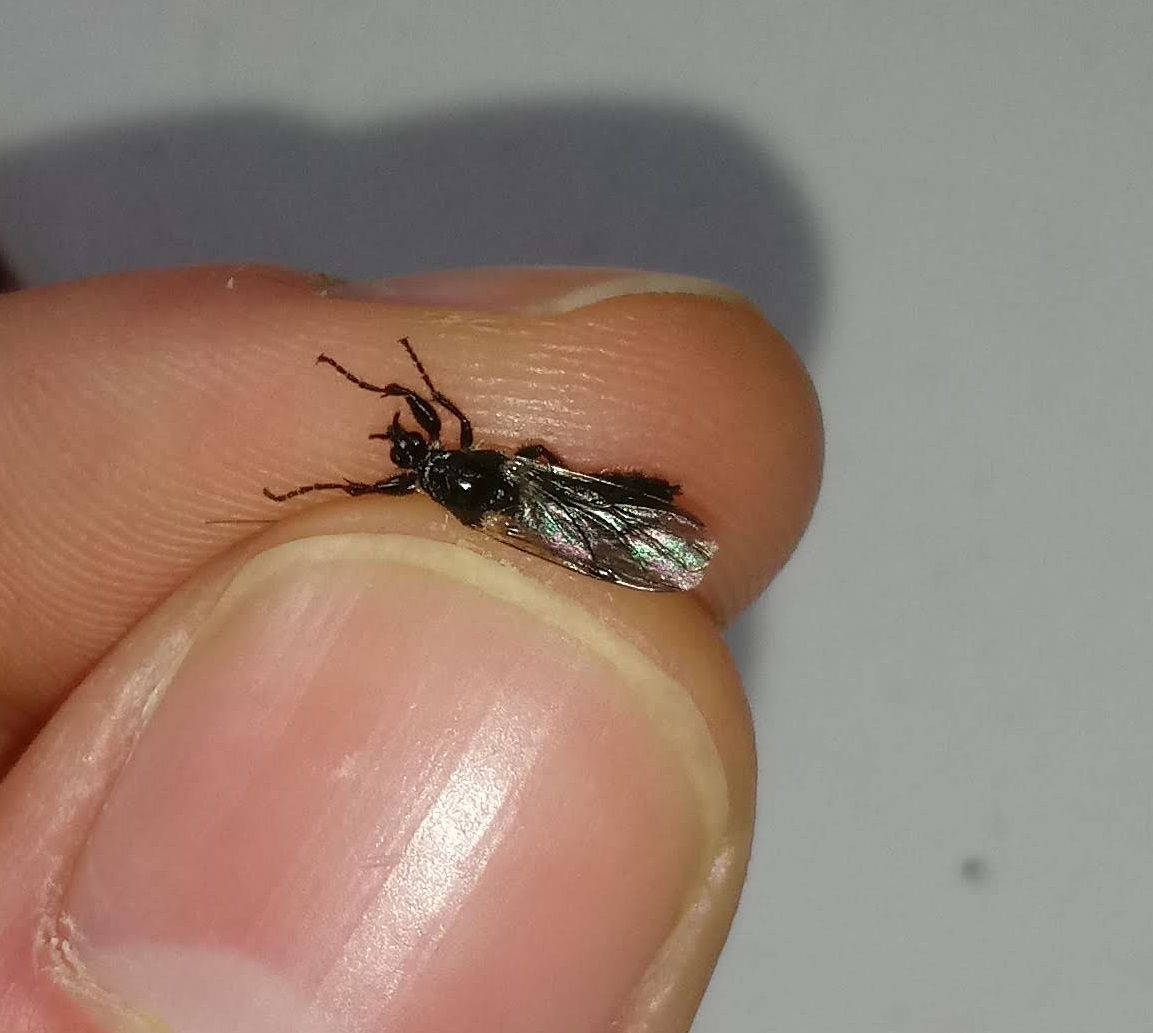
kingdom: Animalia
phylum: Arthropoda
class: Insecta
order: Diptera
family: Bibionidae
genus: Bibio
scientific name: Bibio albipennis
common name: White-winged march fly
